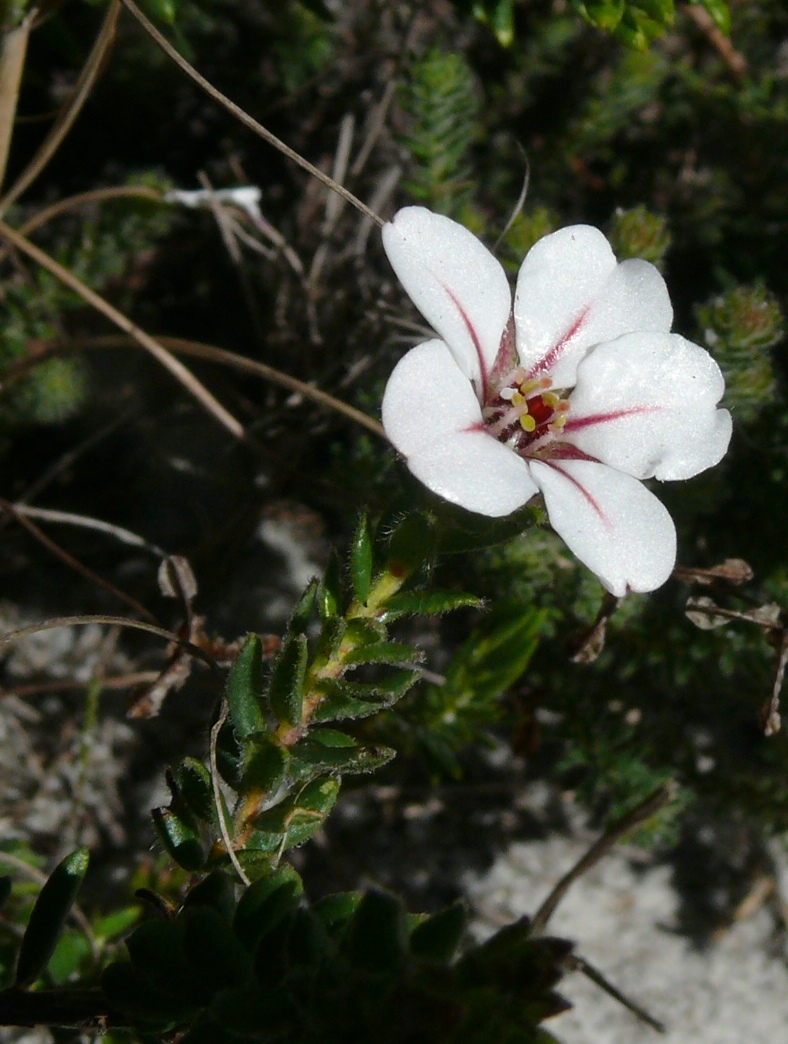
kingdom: Plantae
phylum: Tracheophyta
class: Magnoliopsida
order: Sapindales
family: Rutaceae
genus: Adenandra
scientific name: Adenandra villosa
